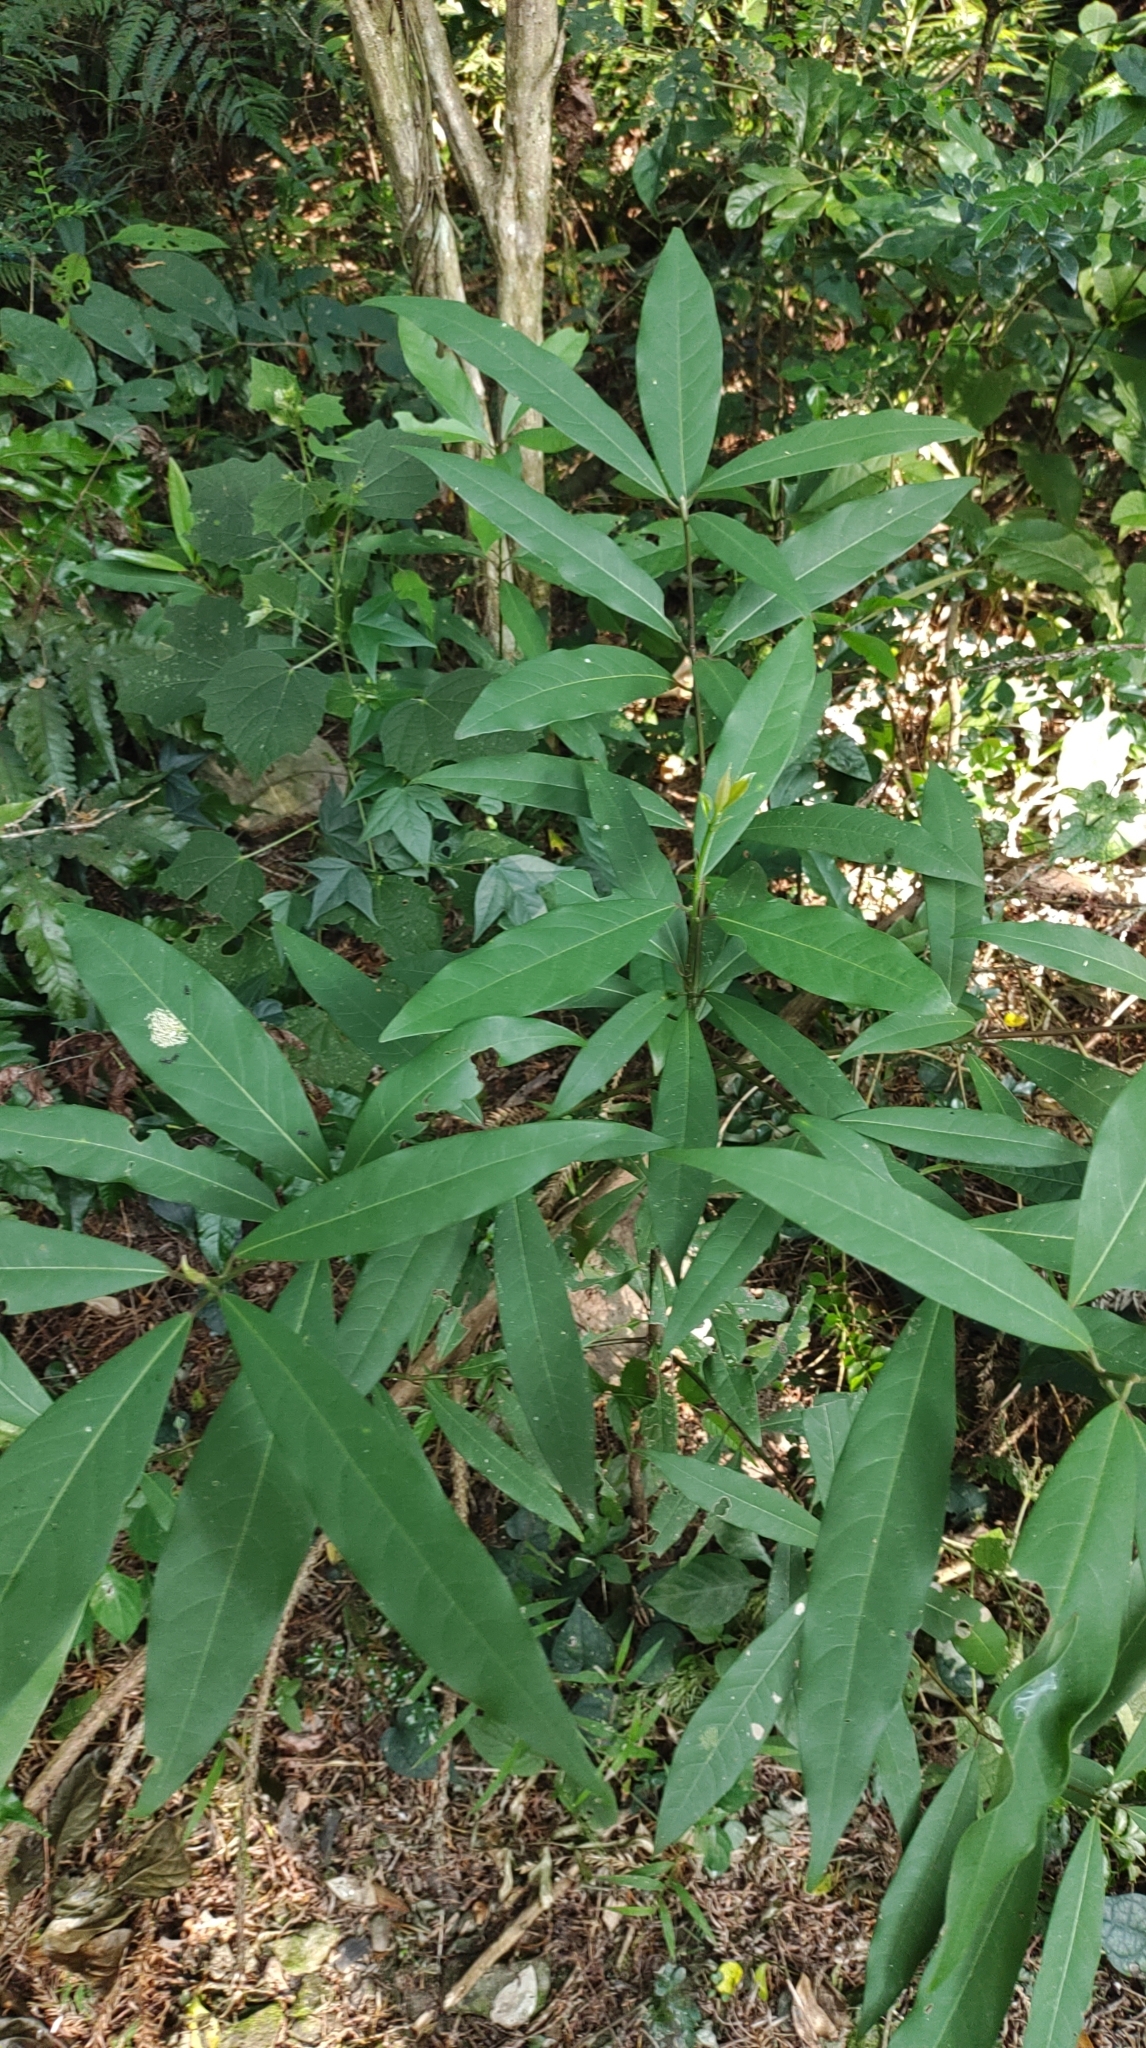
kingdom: Plantae
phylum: Tracheophyta
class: Magnoliopsida
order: Laurales
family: Lauraceae
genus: Machilus
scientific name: Machilus zuihoensis
